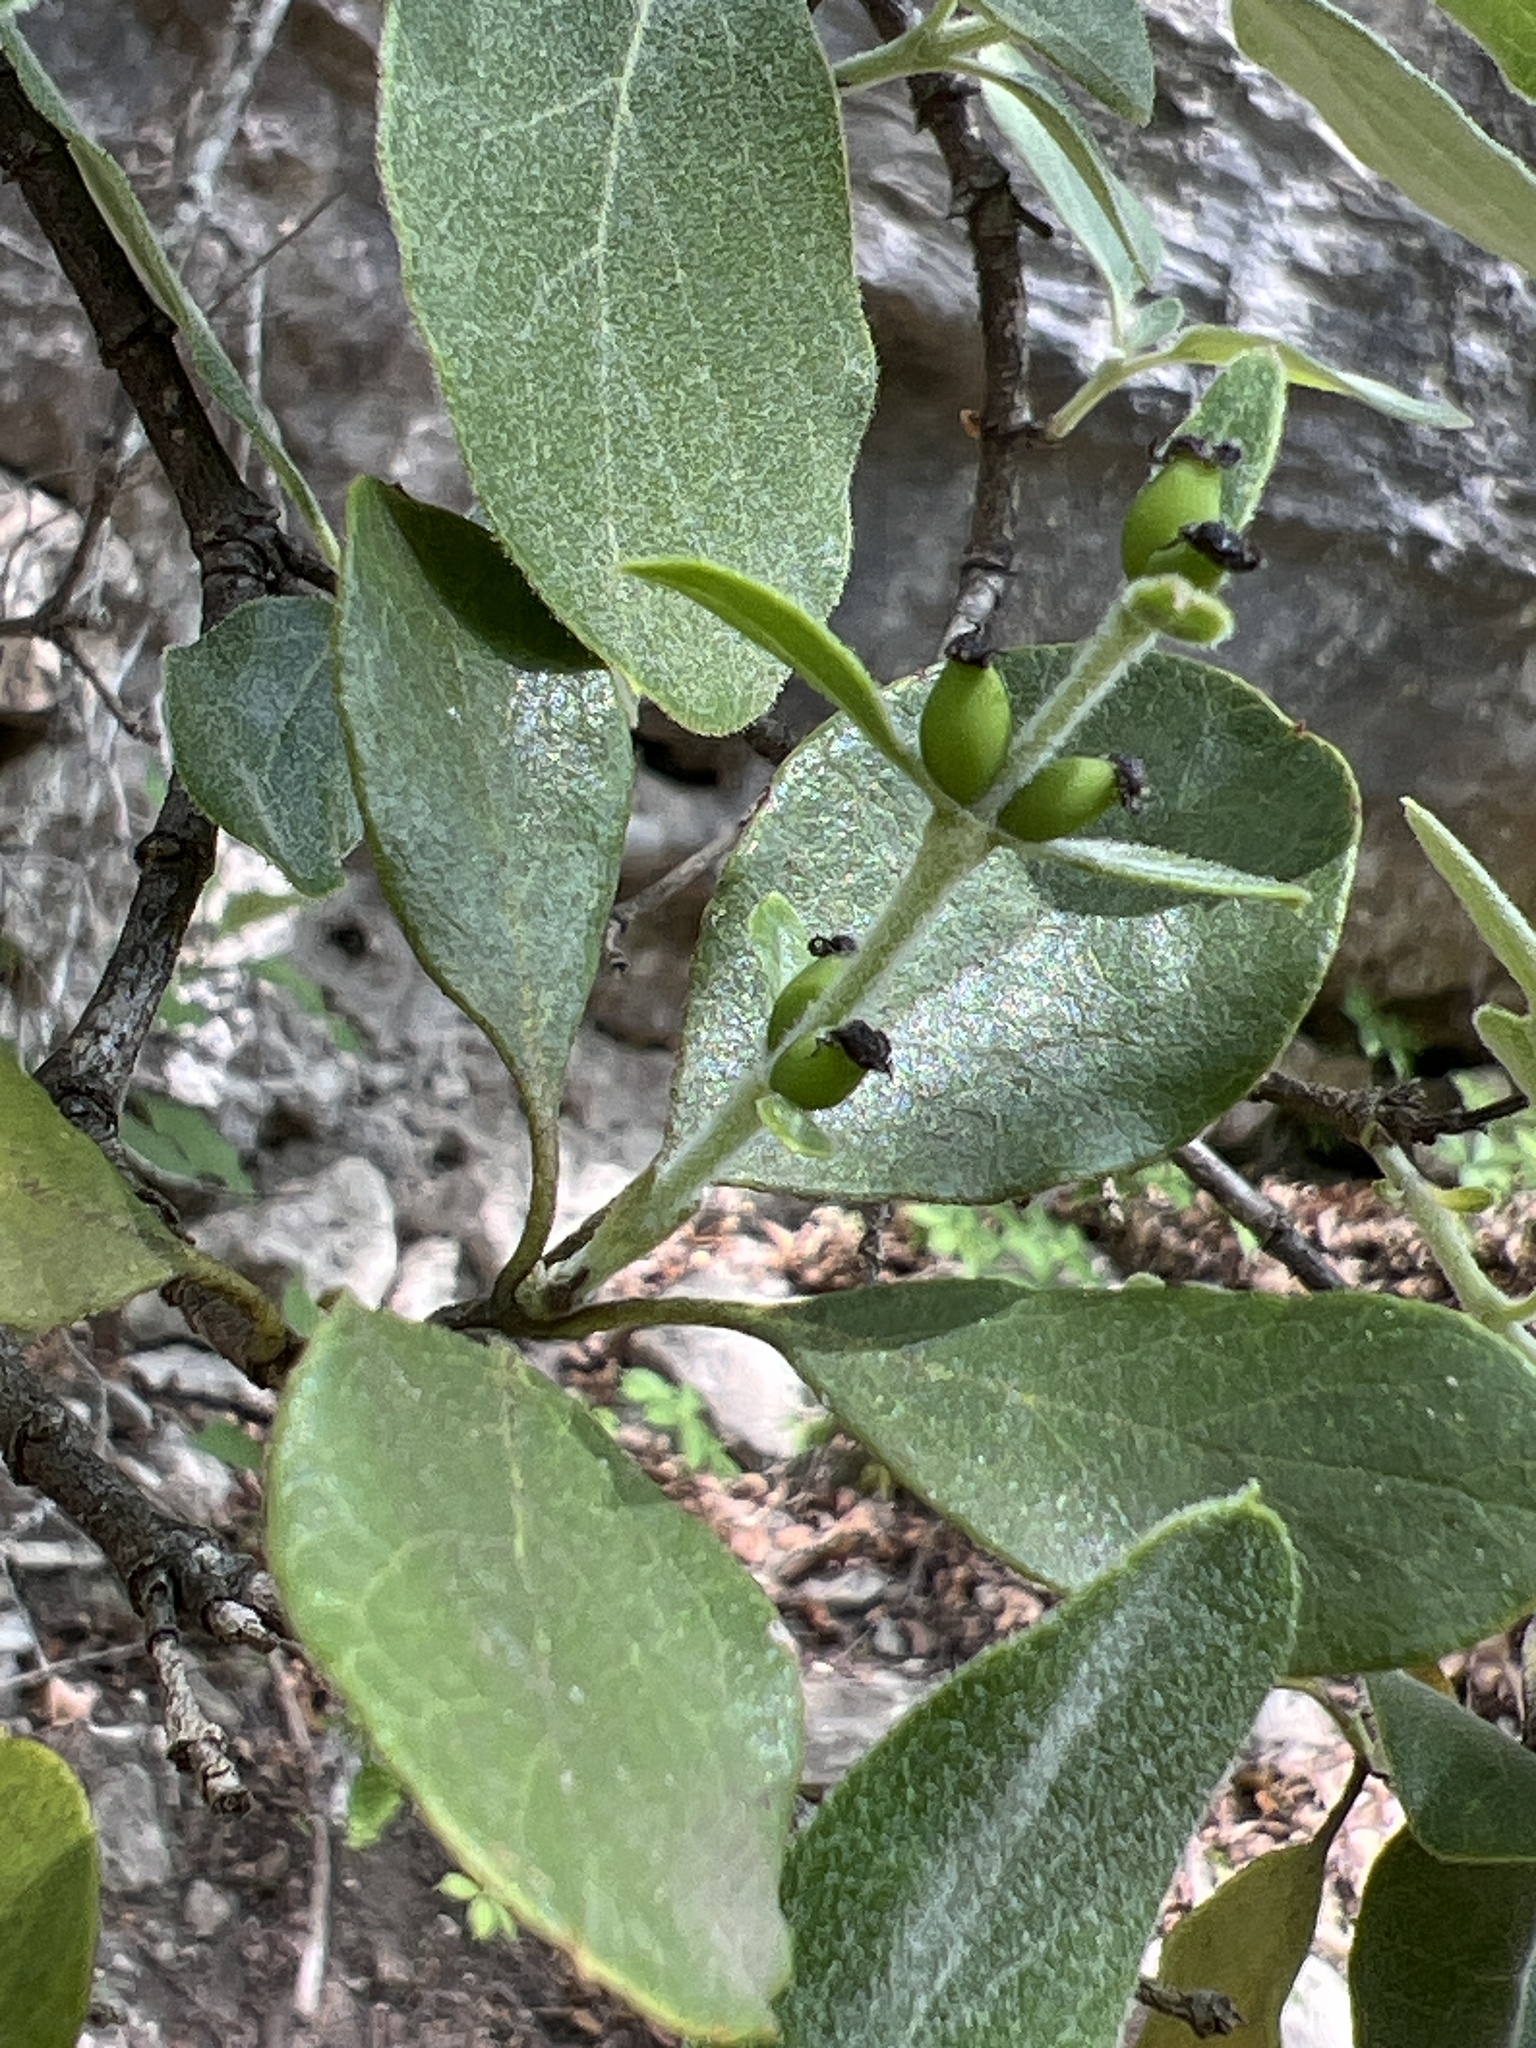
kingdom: Plantae
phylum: Tracheophyta
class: Magnoliopsida
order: Garryales
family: Garryaceae
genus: Garrya
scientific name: Garrya lindheimeri
